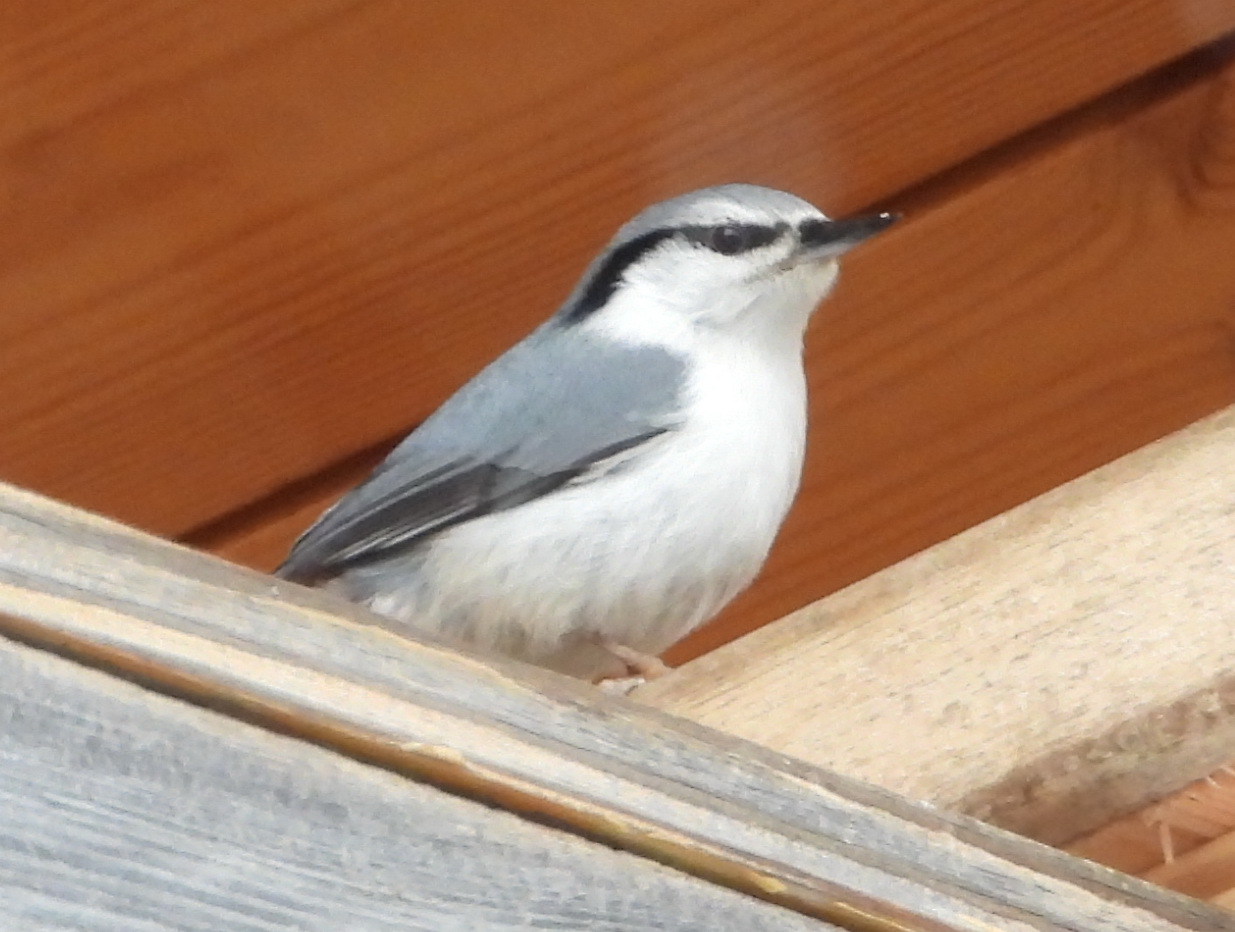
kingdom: Animalia
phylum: Chordata
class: Aves
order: Passeriformes
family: Sittidae
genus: Sitta
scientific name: Sitta europaea
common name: Eurasian nuthatch
